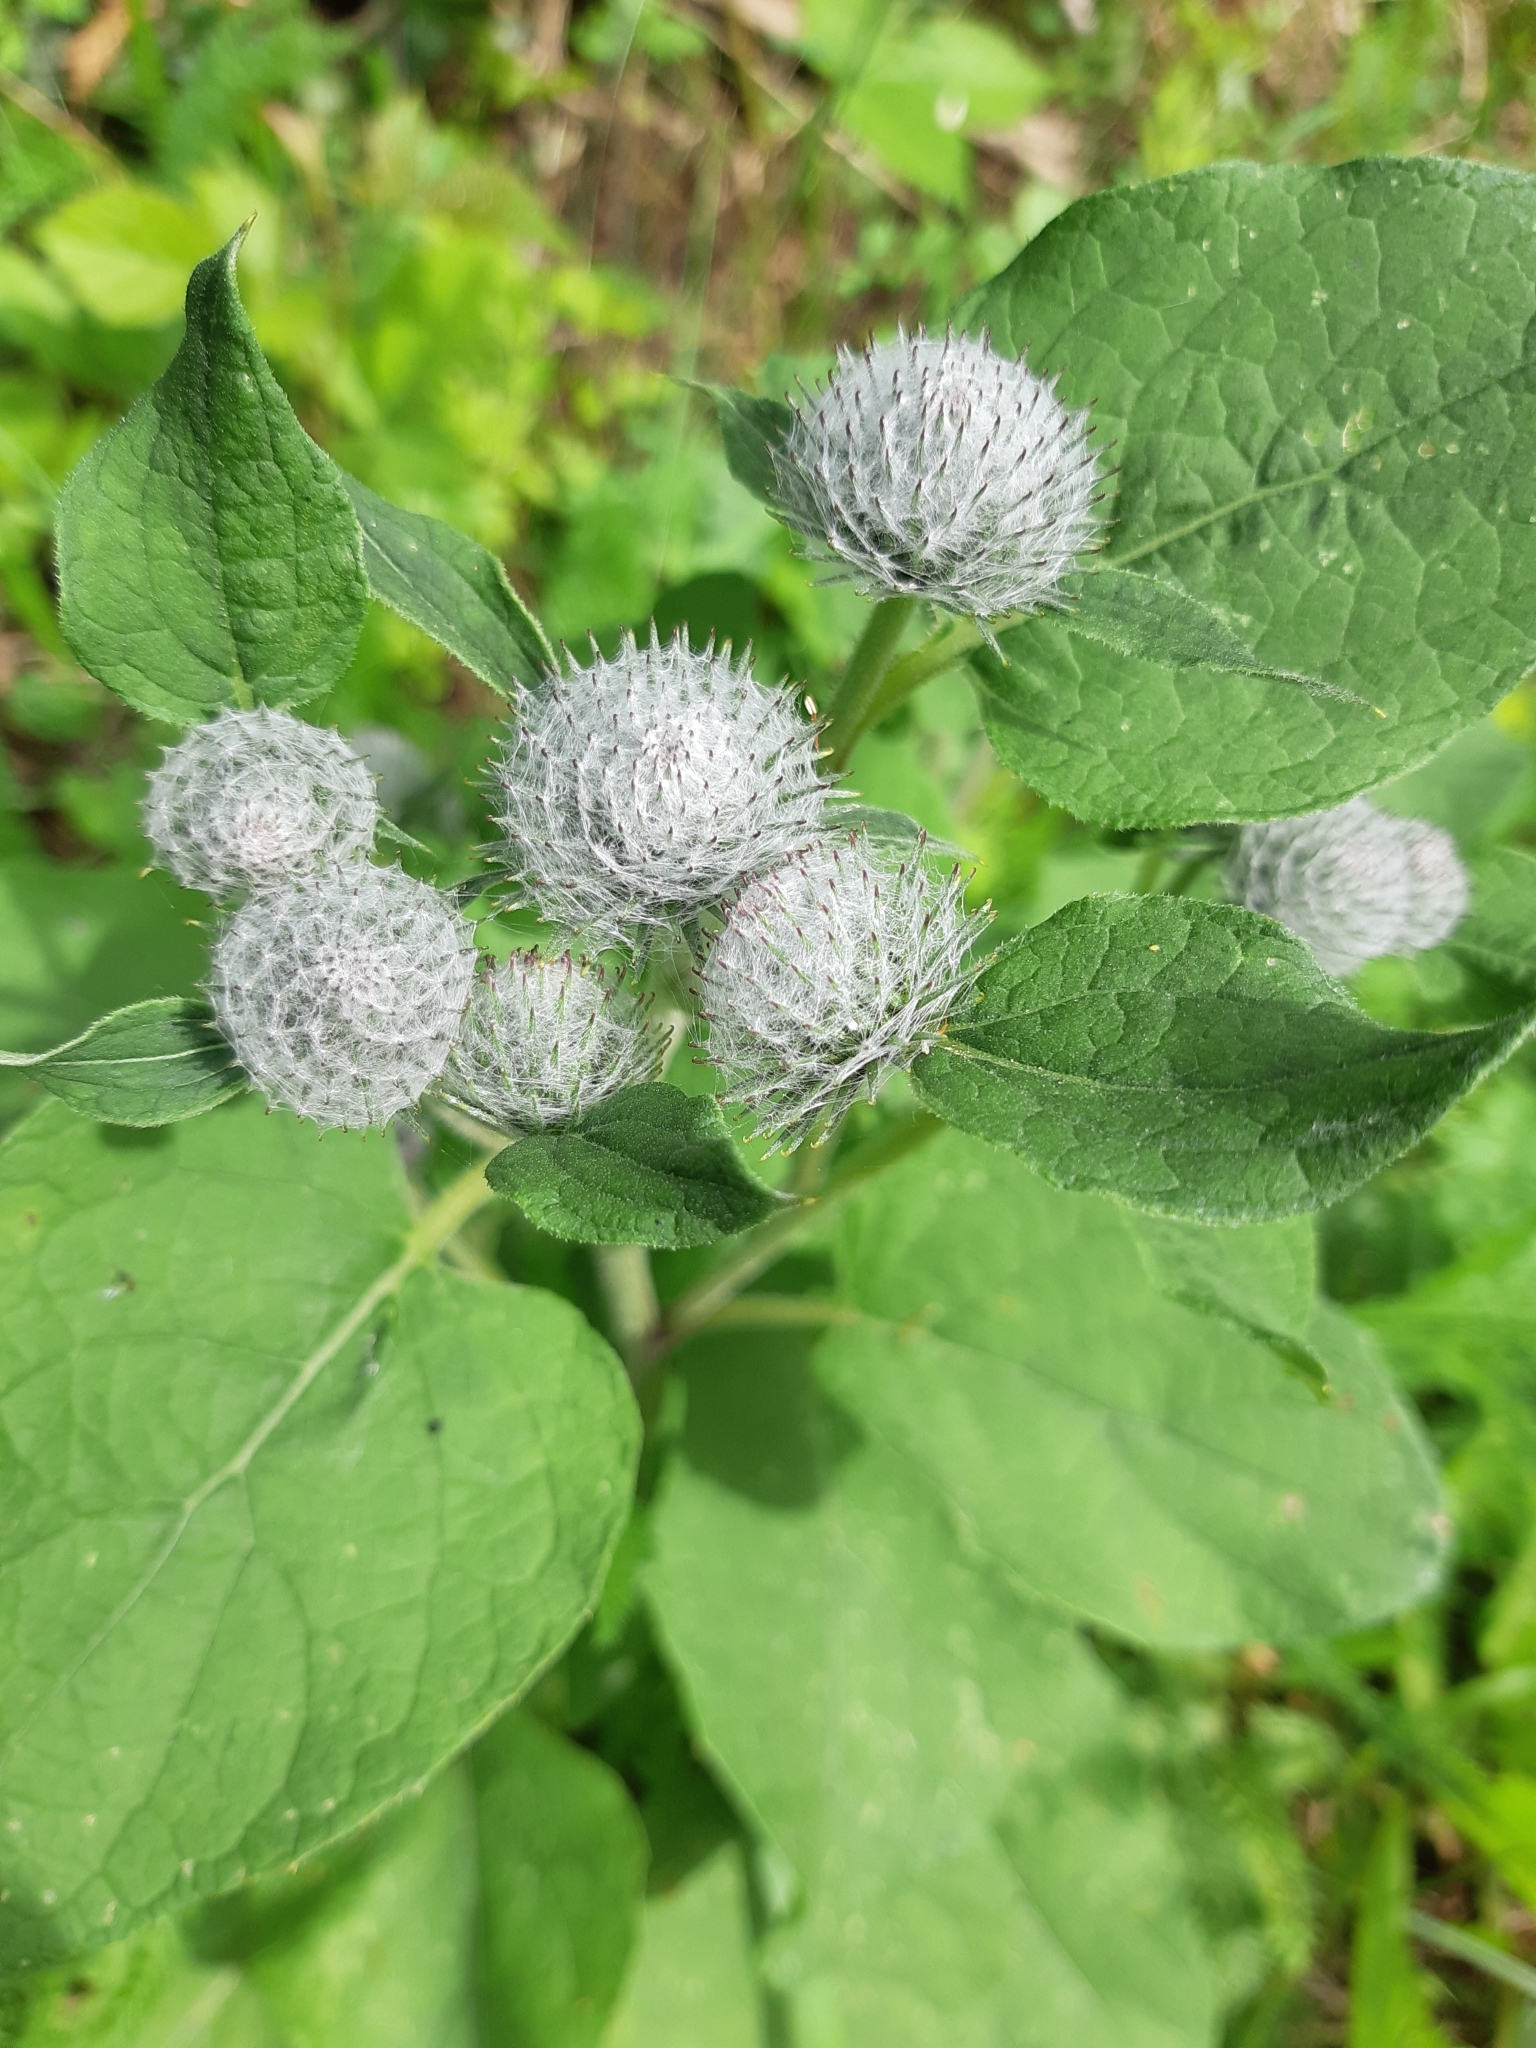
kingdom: Plantae
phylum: Tracheophyta
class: Magnoliopsida
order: Asterales
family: Asteraceae
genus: Arctium
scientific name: Arctium tomentosum
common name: Woolly burdock
